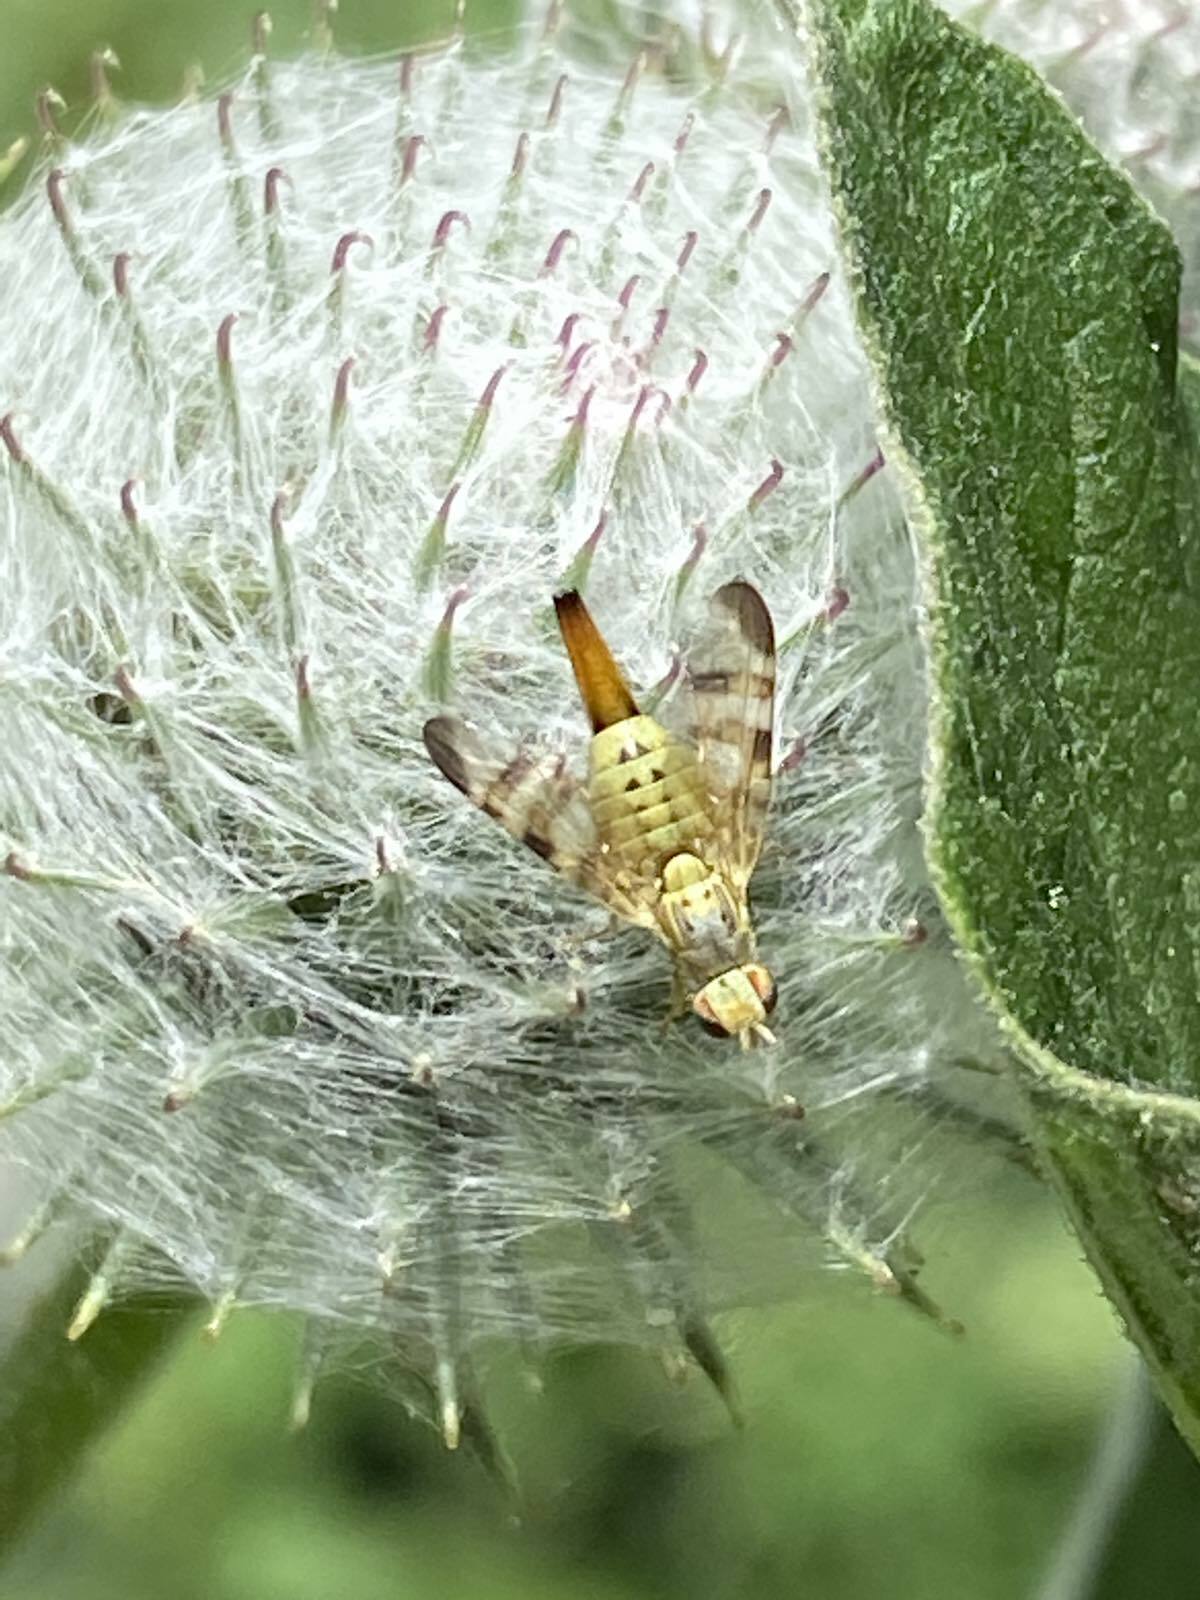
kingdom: Animalia
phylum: Arthropoda
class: Insecta
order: Diptera
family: Tephritidae
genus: Terellia
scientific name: Terellia tussilaginis
